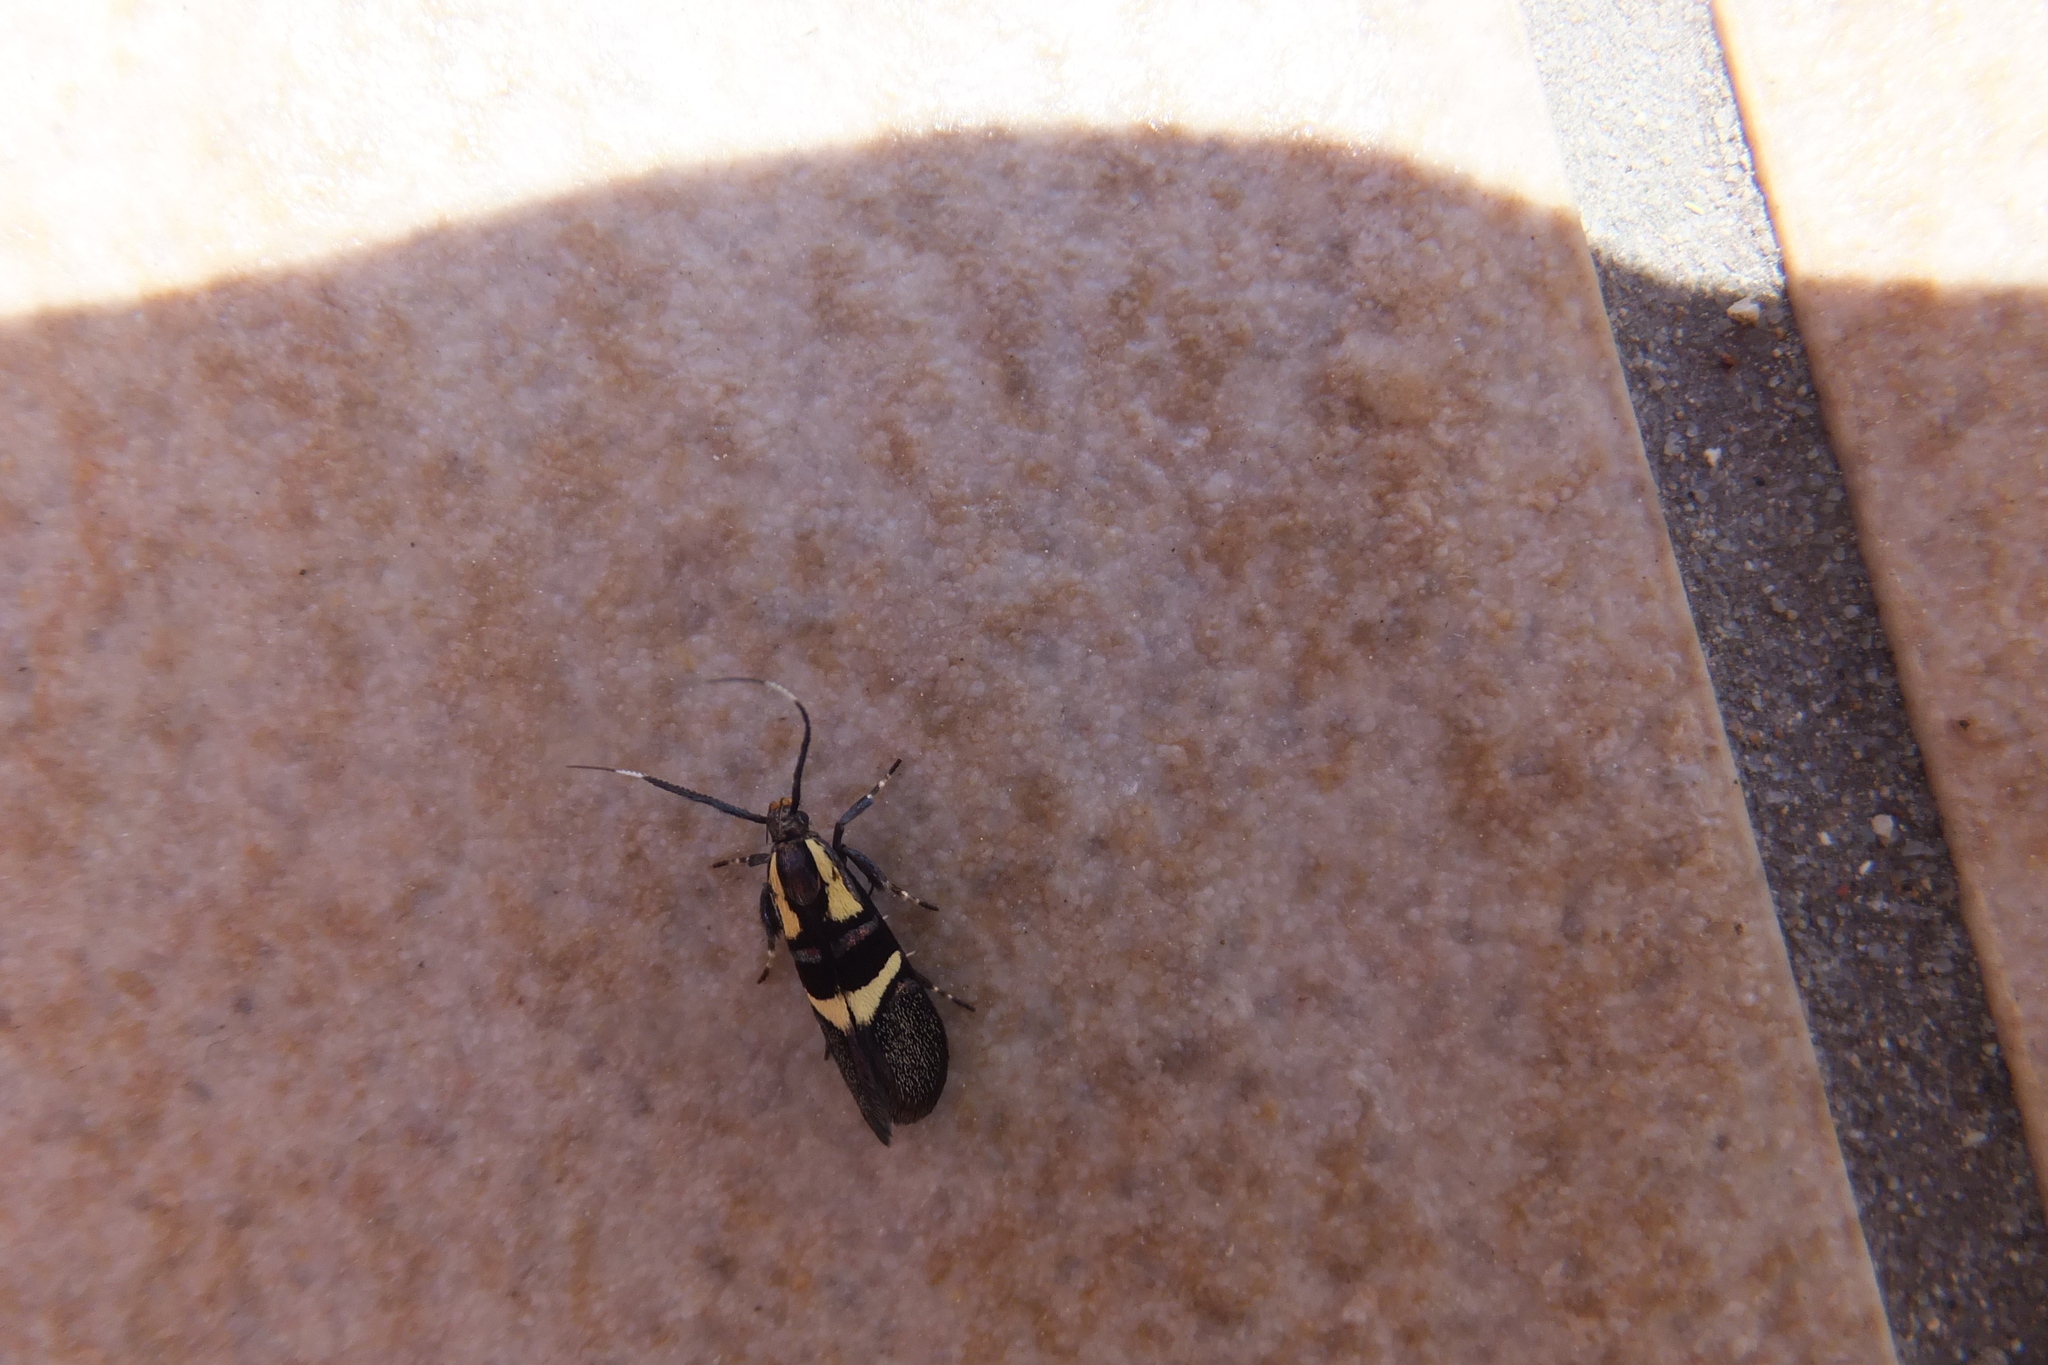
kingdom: Animalia
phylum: Arthropoda
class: Insecta
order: Lepidoptera
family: Oecophoridae
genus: Dafa
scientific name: Dafa oliviella
